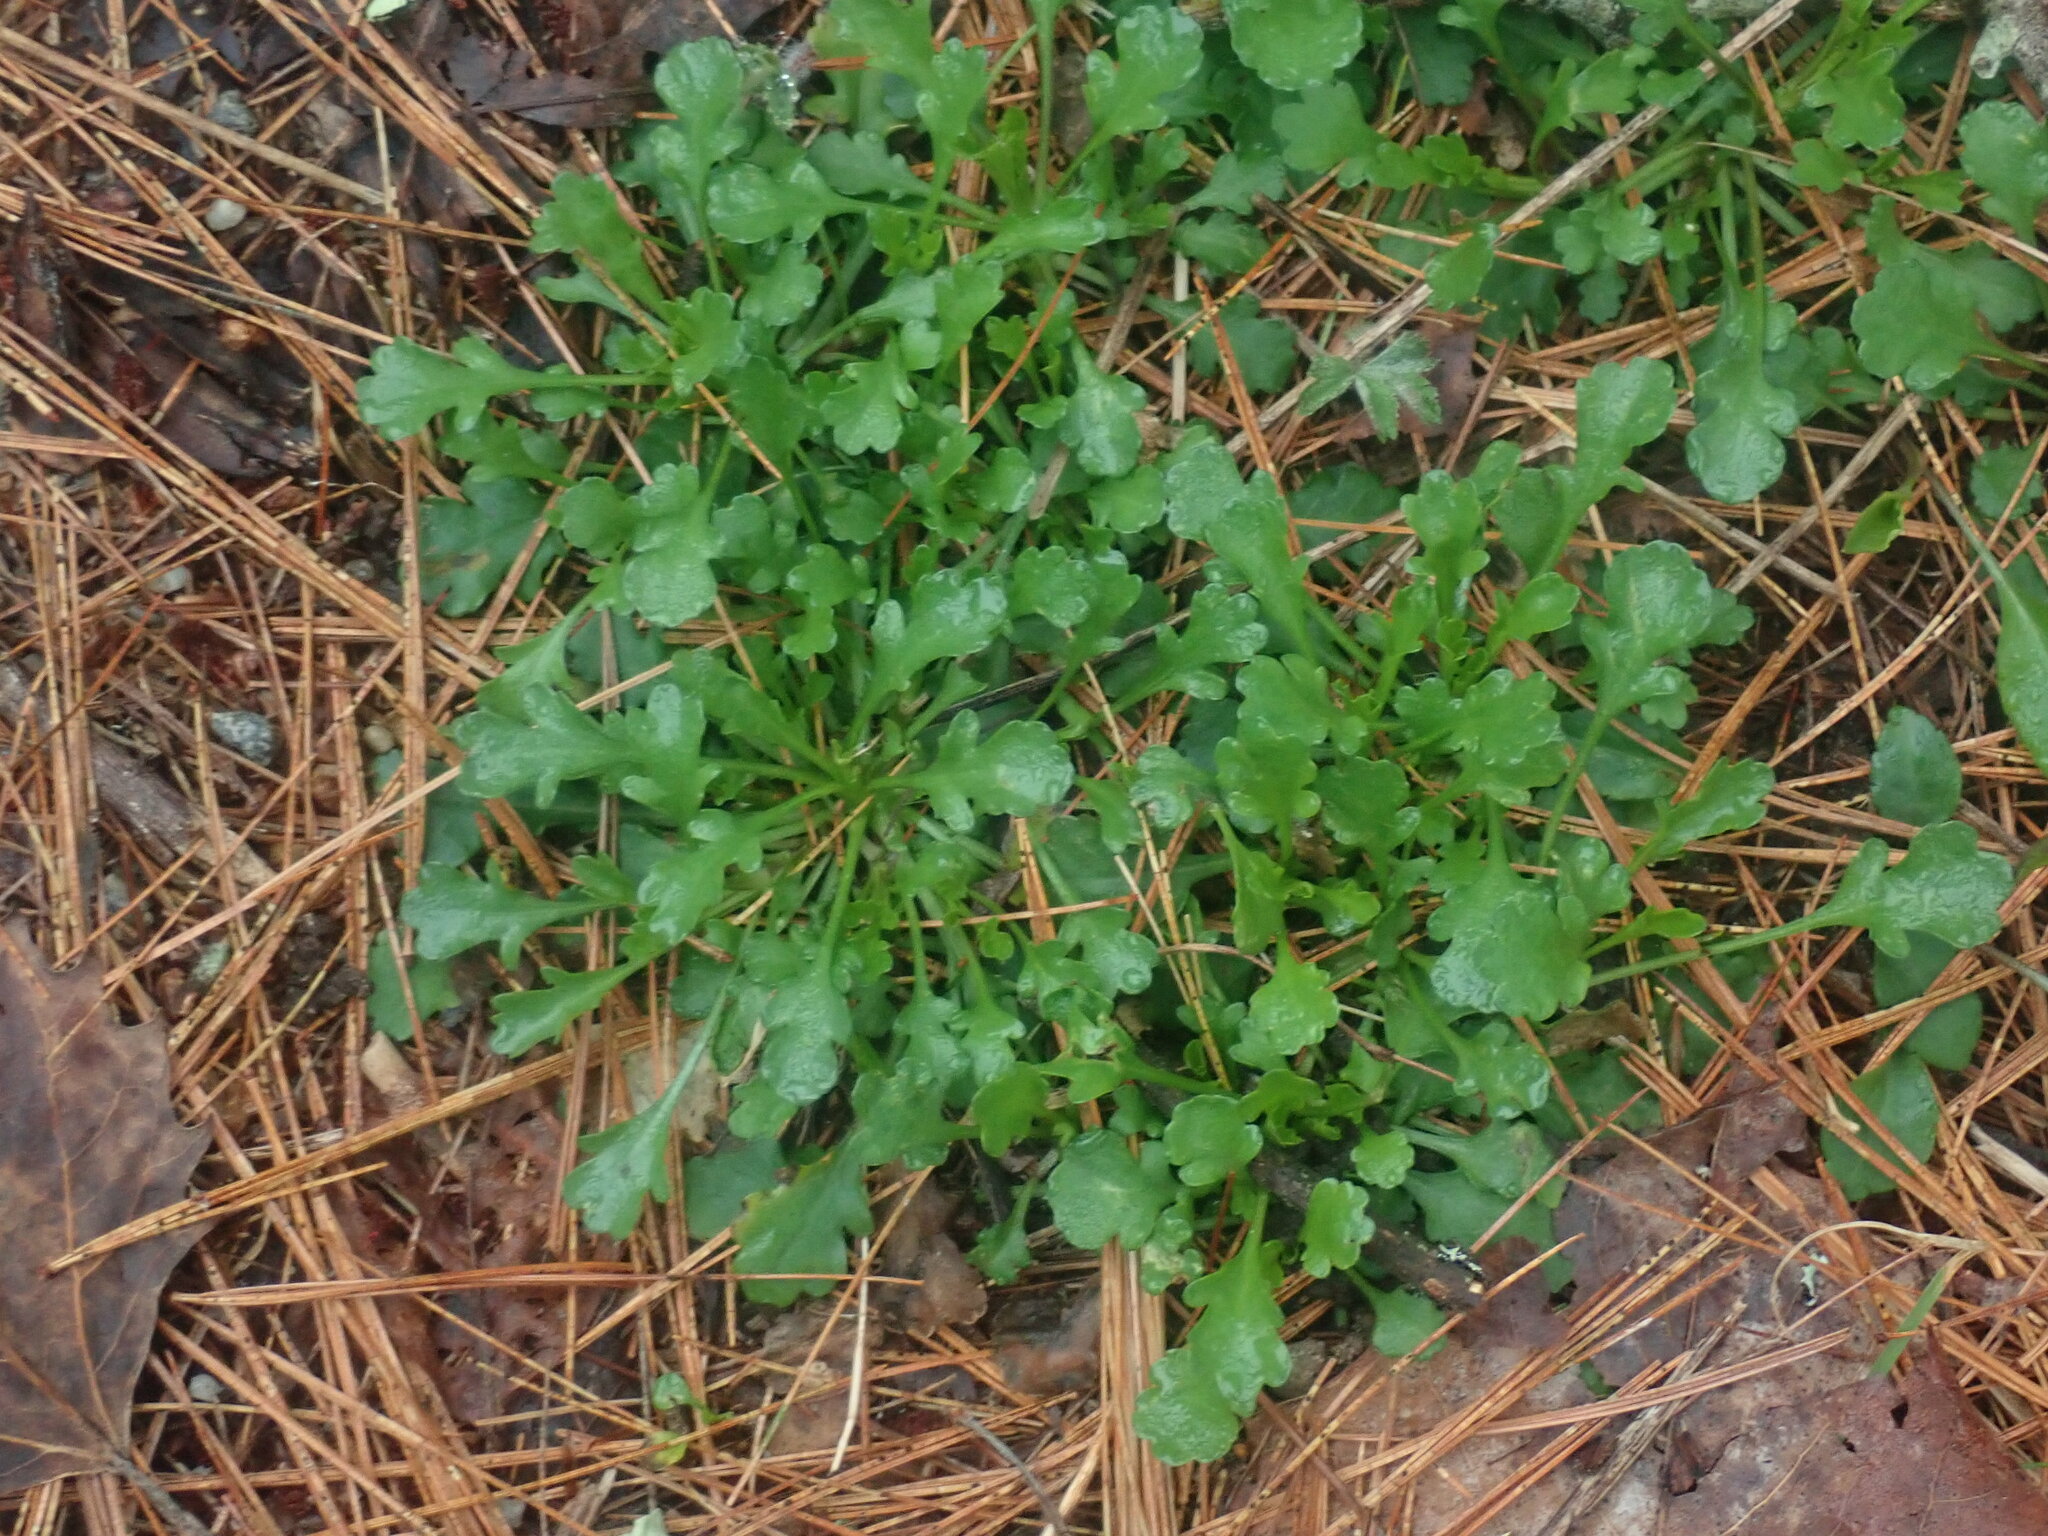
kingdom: Plantae
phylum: Tracheophyta
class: Magnoliopsida
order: Asterales
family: Asteraceae
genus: Leucanthemum
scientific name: Leucanthemum vulgare
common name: Oxeye daisy
